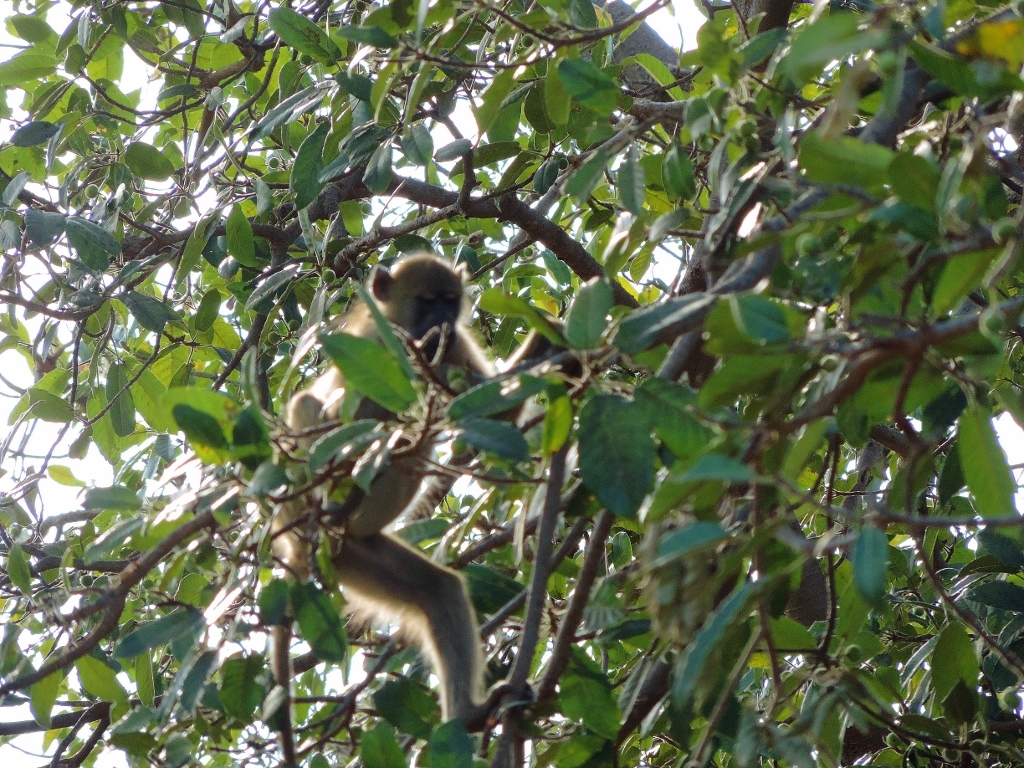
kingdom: Animalia
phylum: Chordata
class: Mammalia
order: Primates
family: Cercopithecidae
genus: Papio
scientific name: Papio ursinus
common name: Chacma baboon
